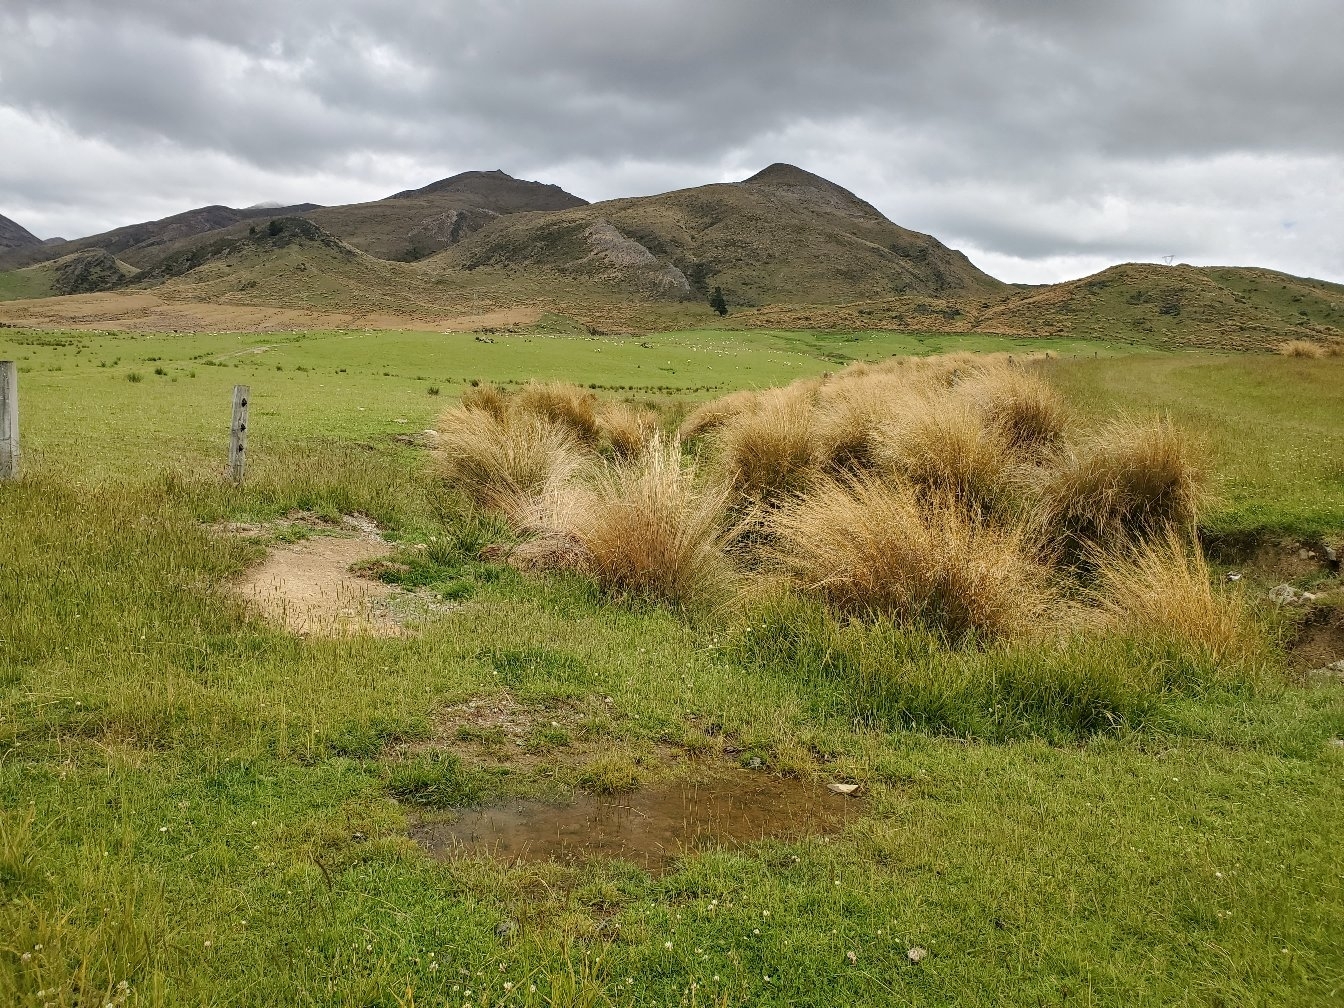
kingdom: Plantae
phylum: Tracheophyta
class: Liliopsida
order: Poales
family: Poaceae
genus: Chionochloa
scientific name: Chionochloa rubra
